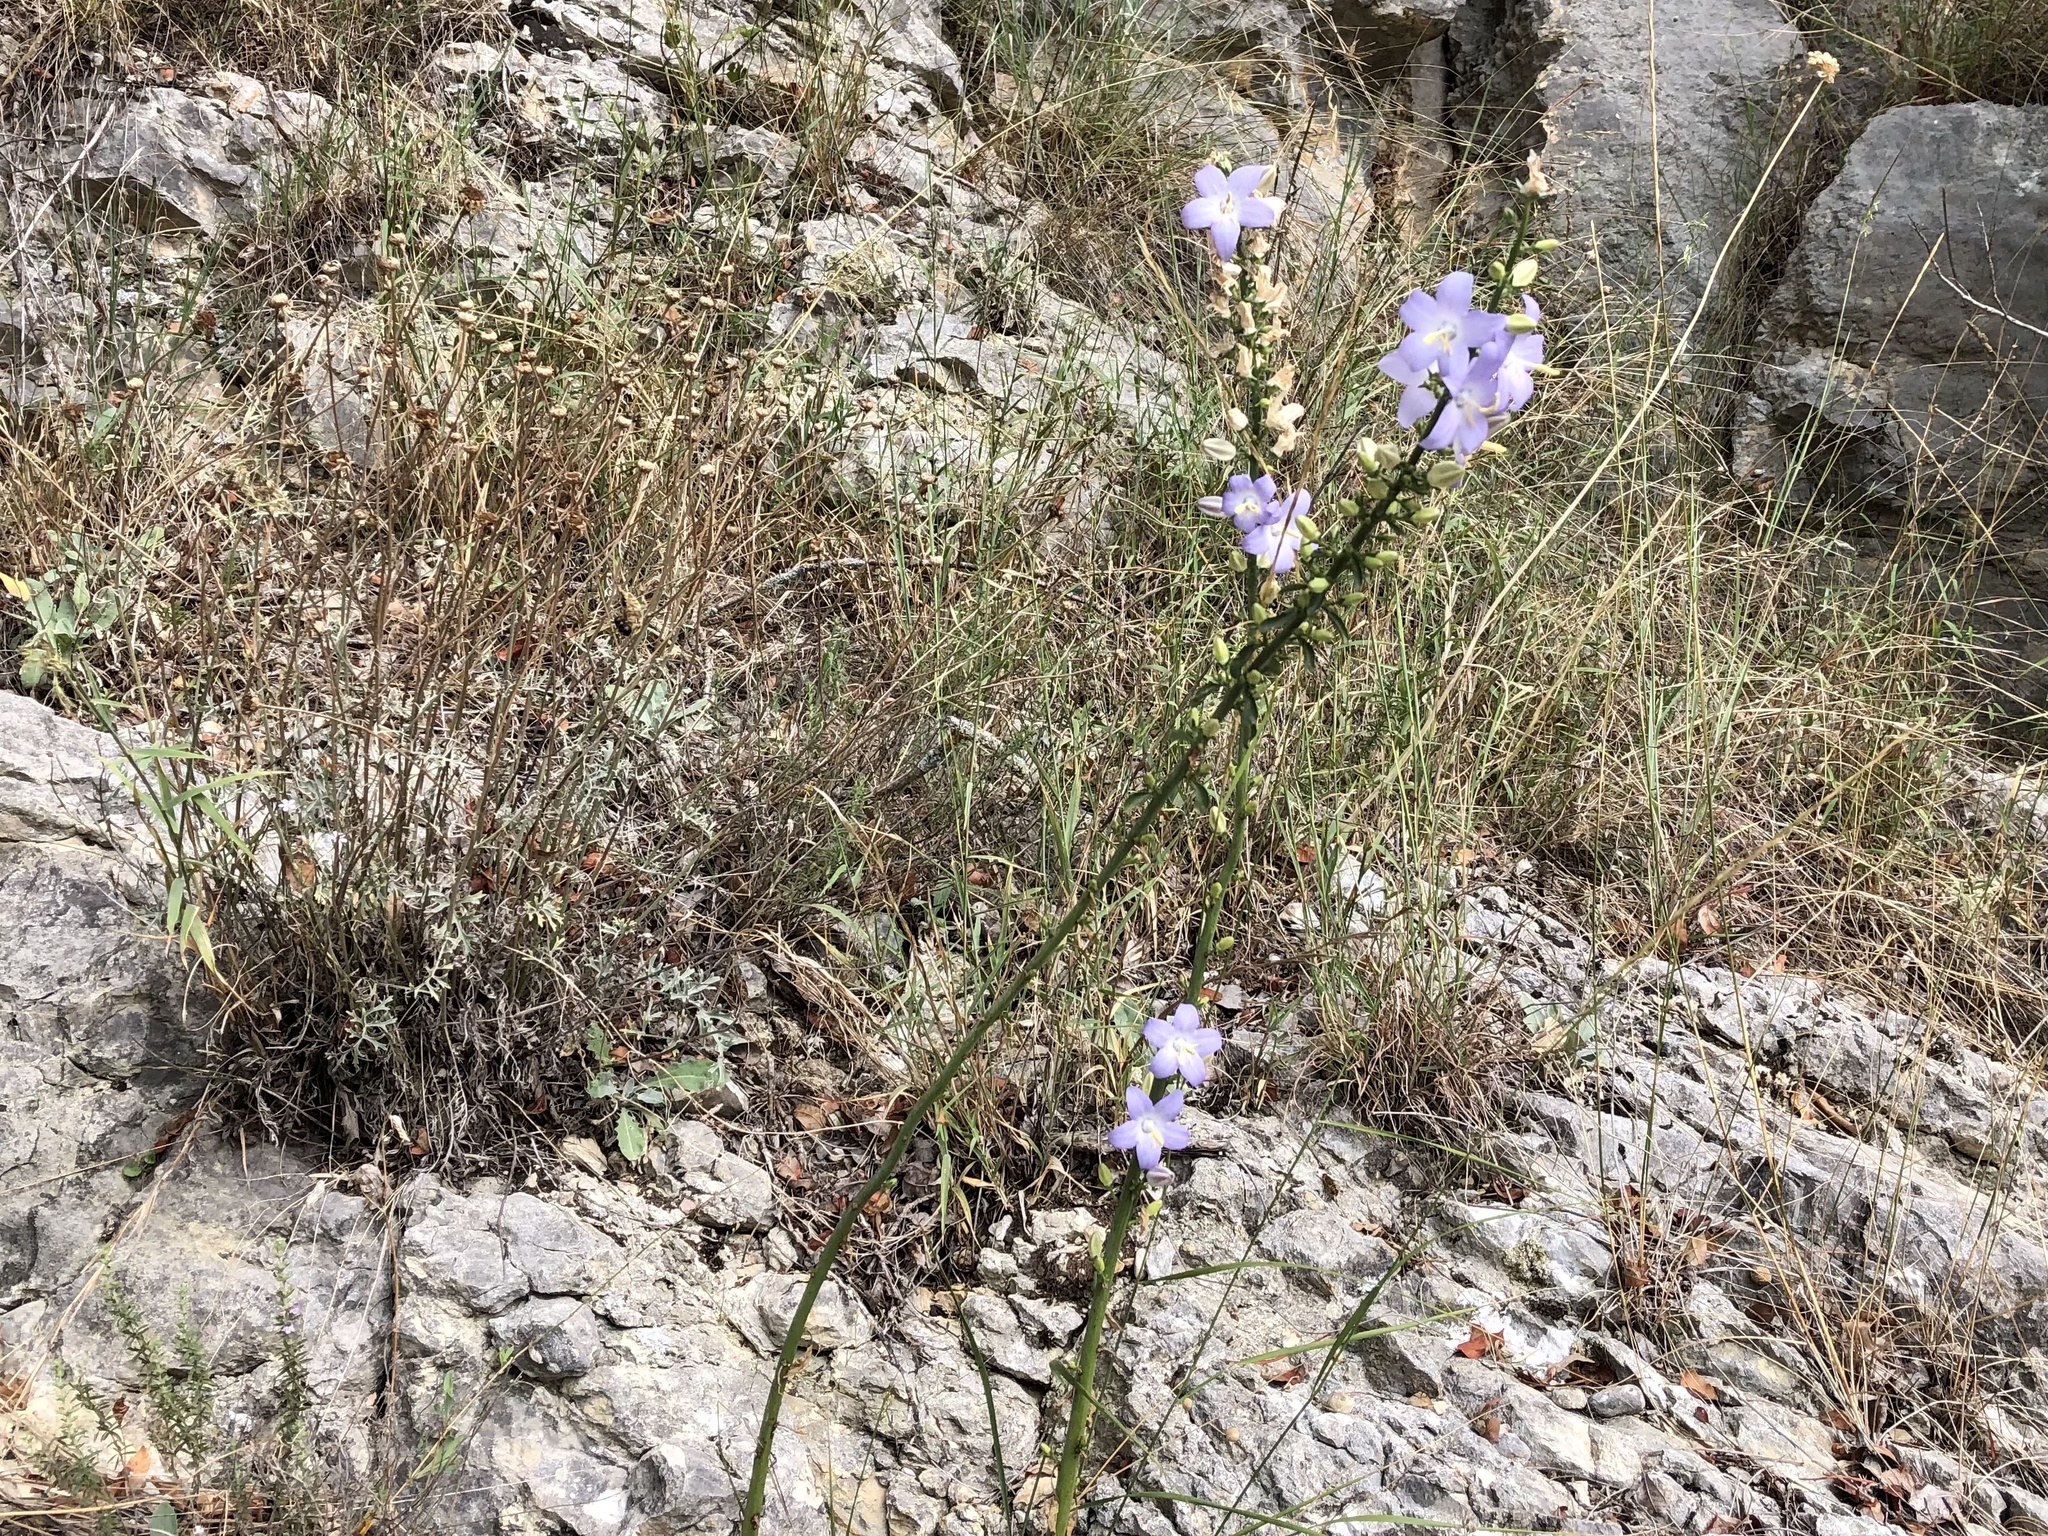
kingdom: Plantae
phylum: Tracheophyta
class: Magnoliopsida
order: Asterales
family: Campanulaceae
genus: Campanula
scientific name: Campanula pyramidalis
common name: Chimney bellflower
